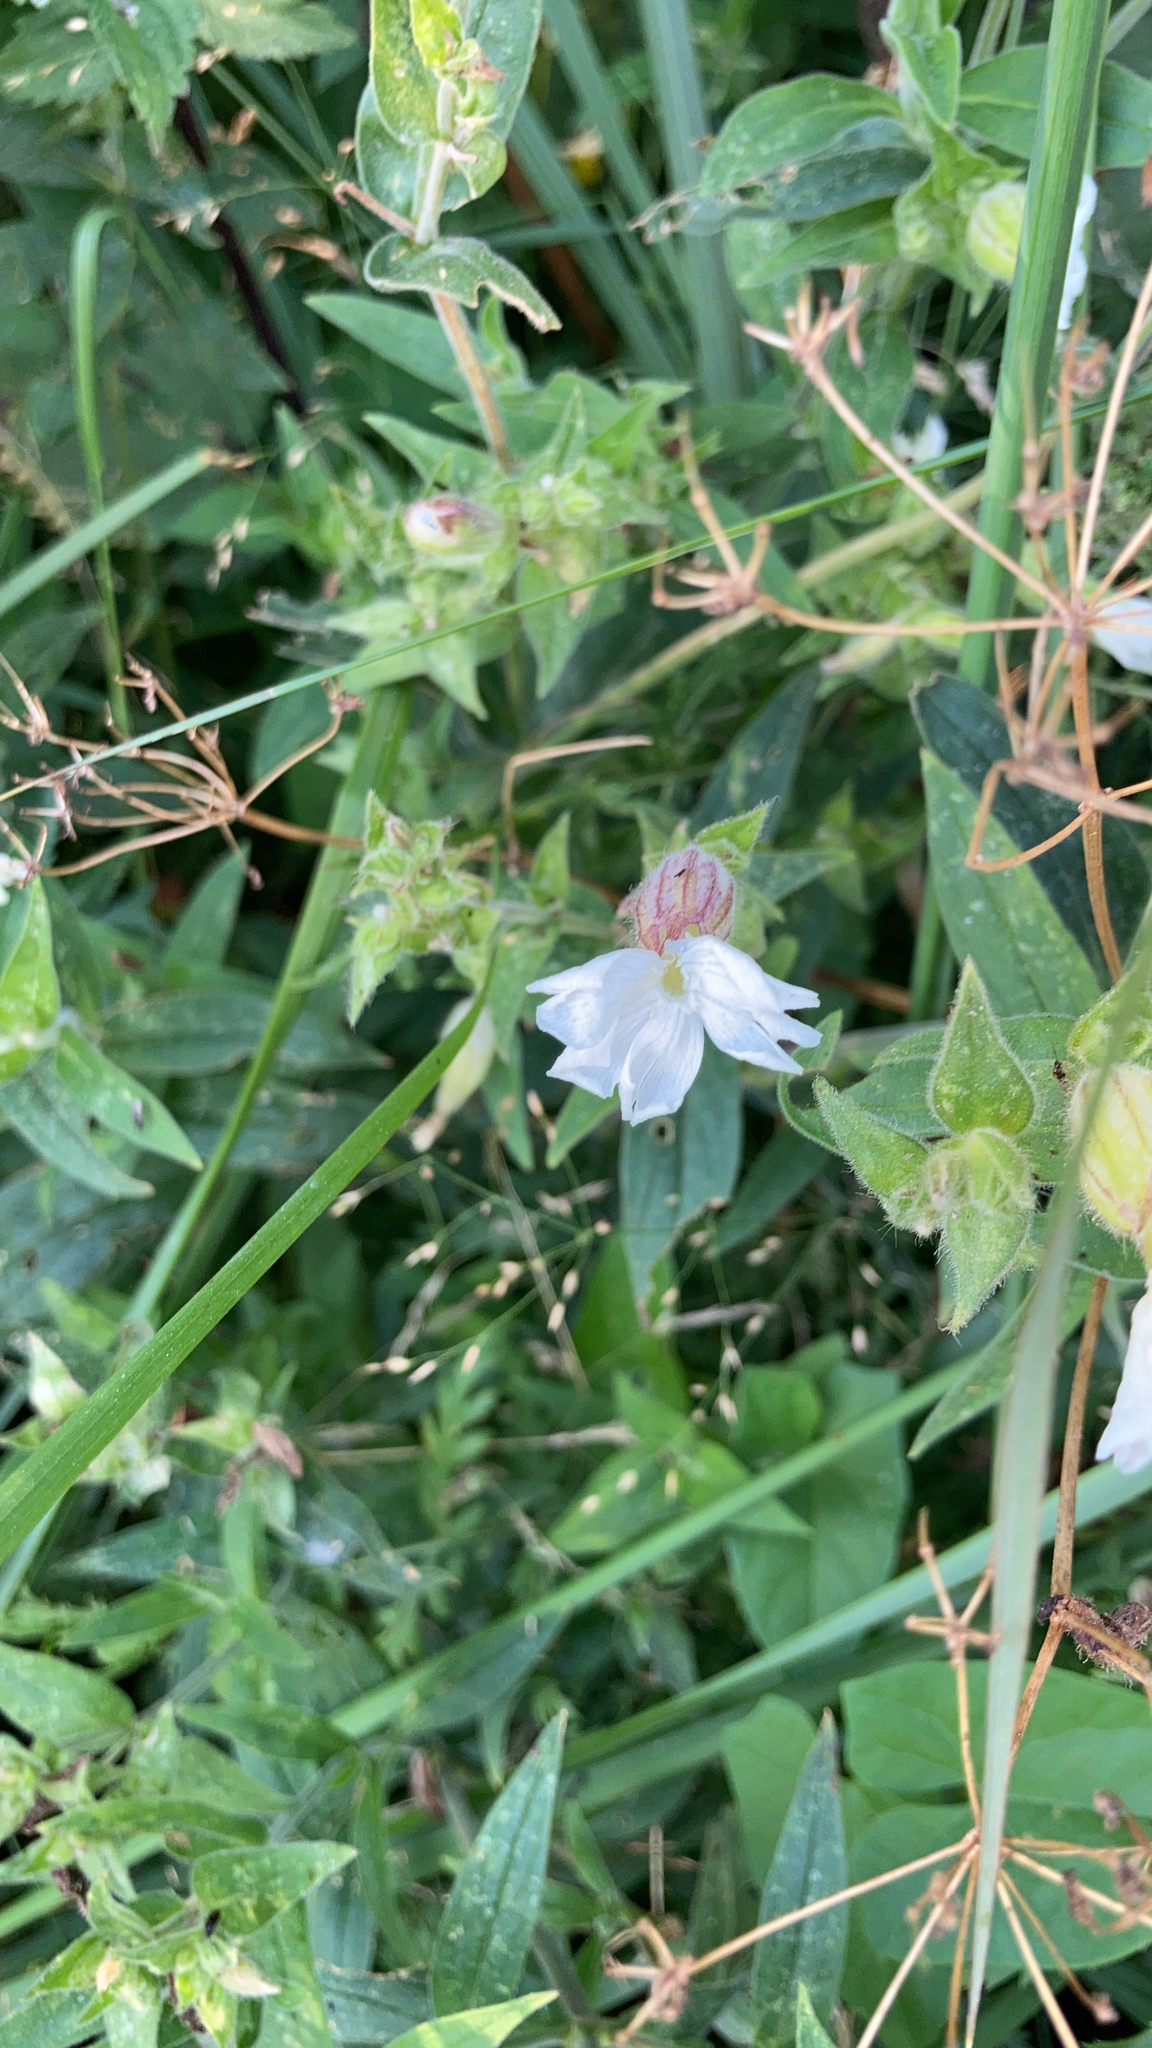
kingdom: Plantae
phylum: Tracheophyta
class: Magnoliopsida
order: Caryophyllales
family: Caryophyllaceae
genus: Silene
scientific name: Silene latifolia
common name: White campion
